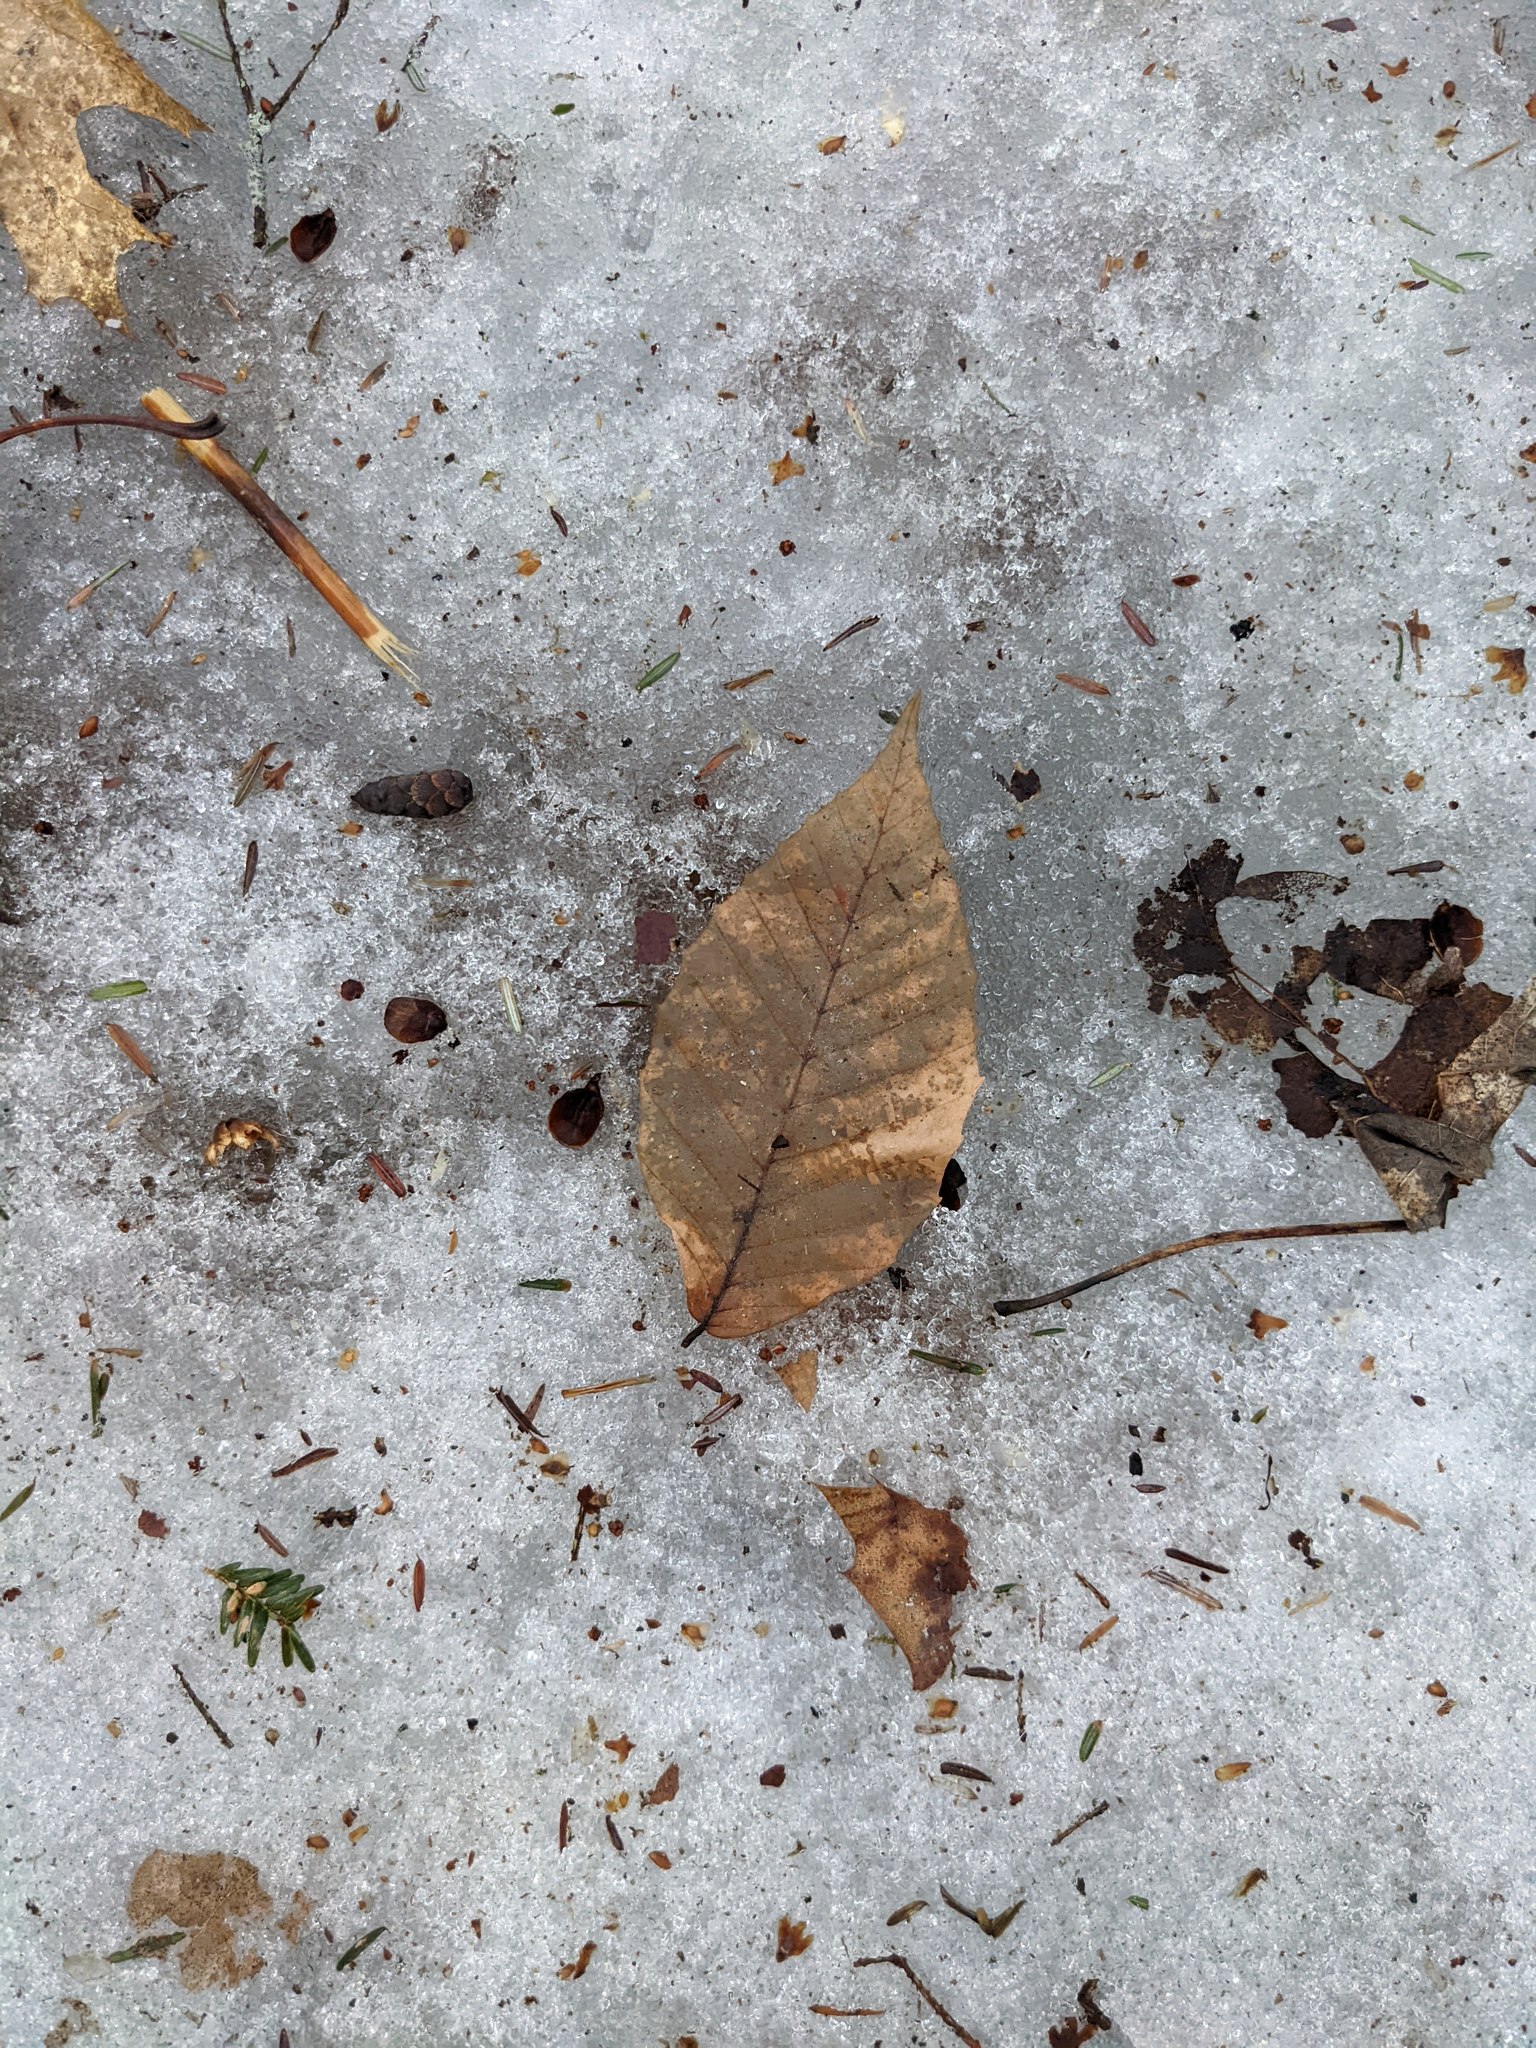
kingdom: Plantae
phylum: Tracheophyta
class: Magnoliopsida
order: Fagales
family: Fagaceae
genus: Fagus
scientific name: Fagus grandifolia
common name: American beech
